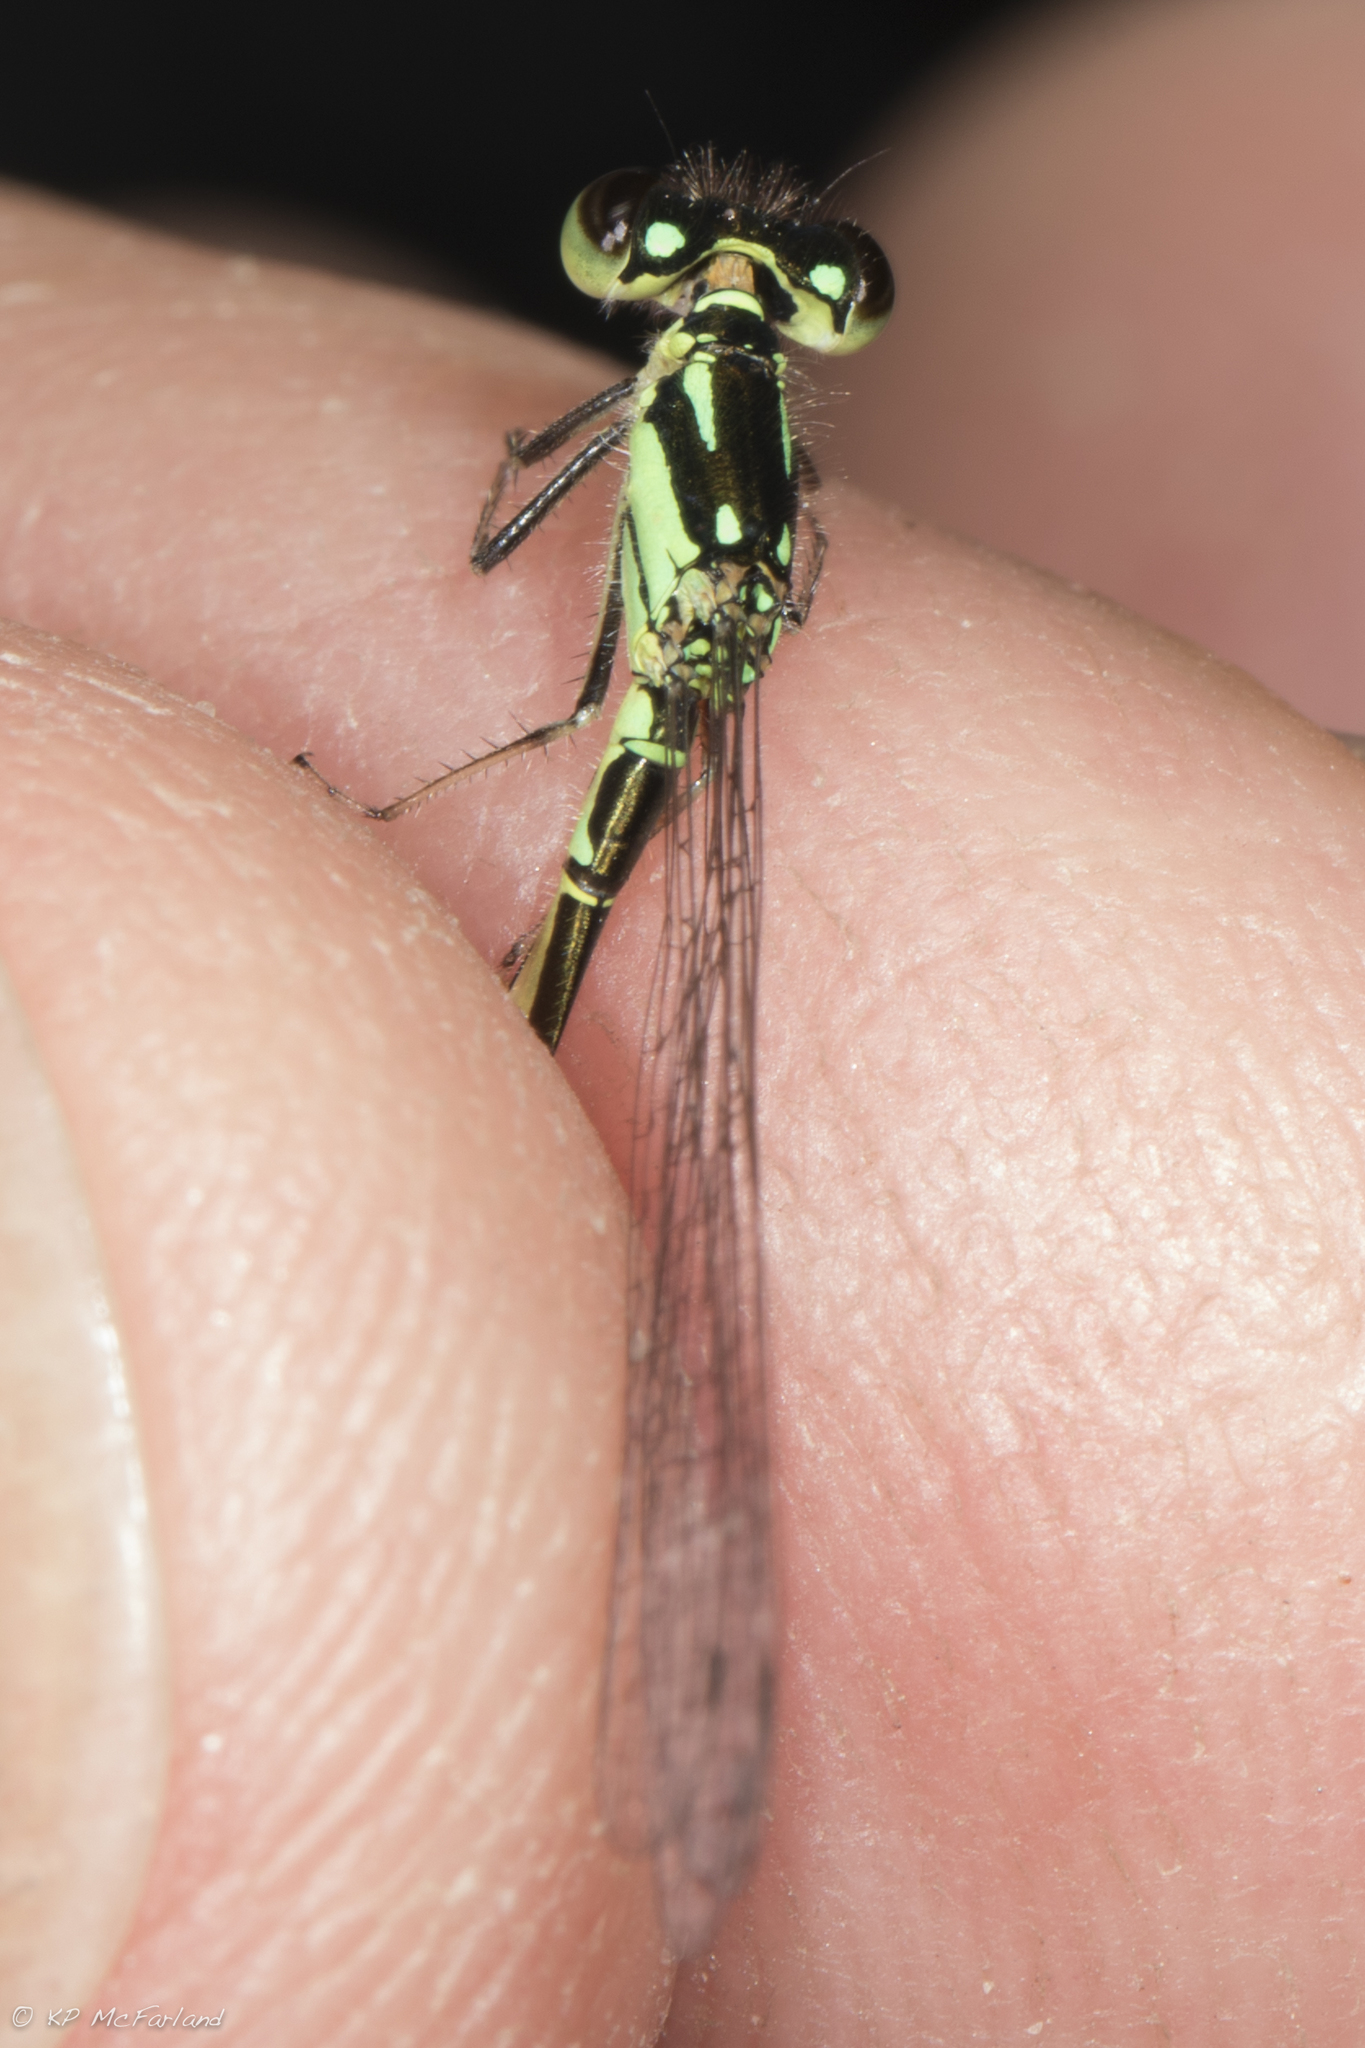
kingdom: Animalia
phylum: Arthropoda
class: Insecta
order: Odonata
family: Coenagrionidae
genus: Ischnura
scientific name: Ischnura posita
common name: Fragile forktail
